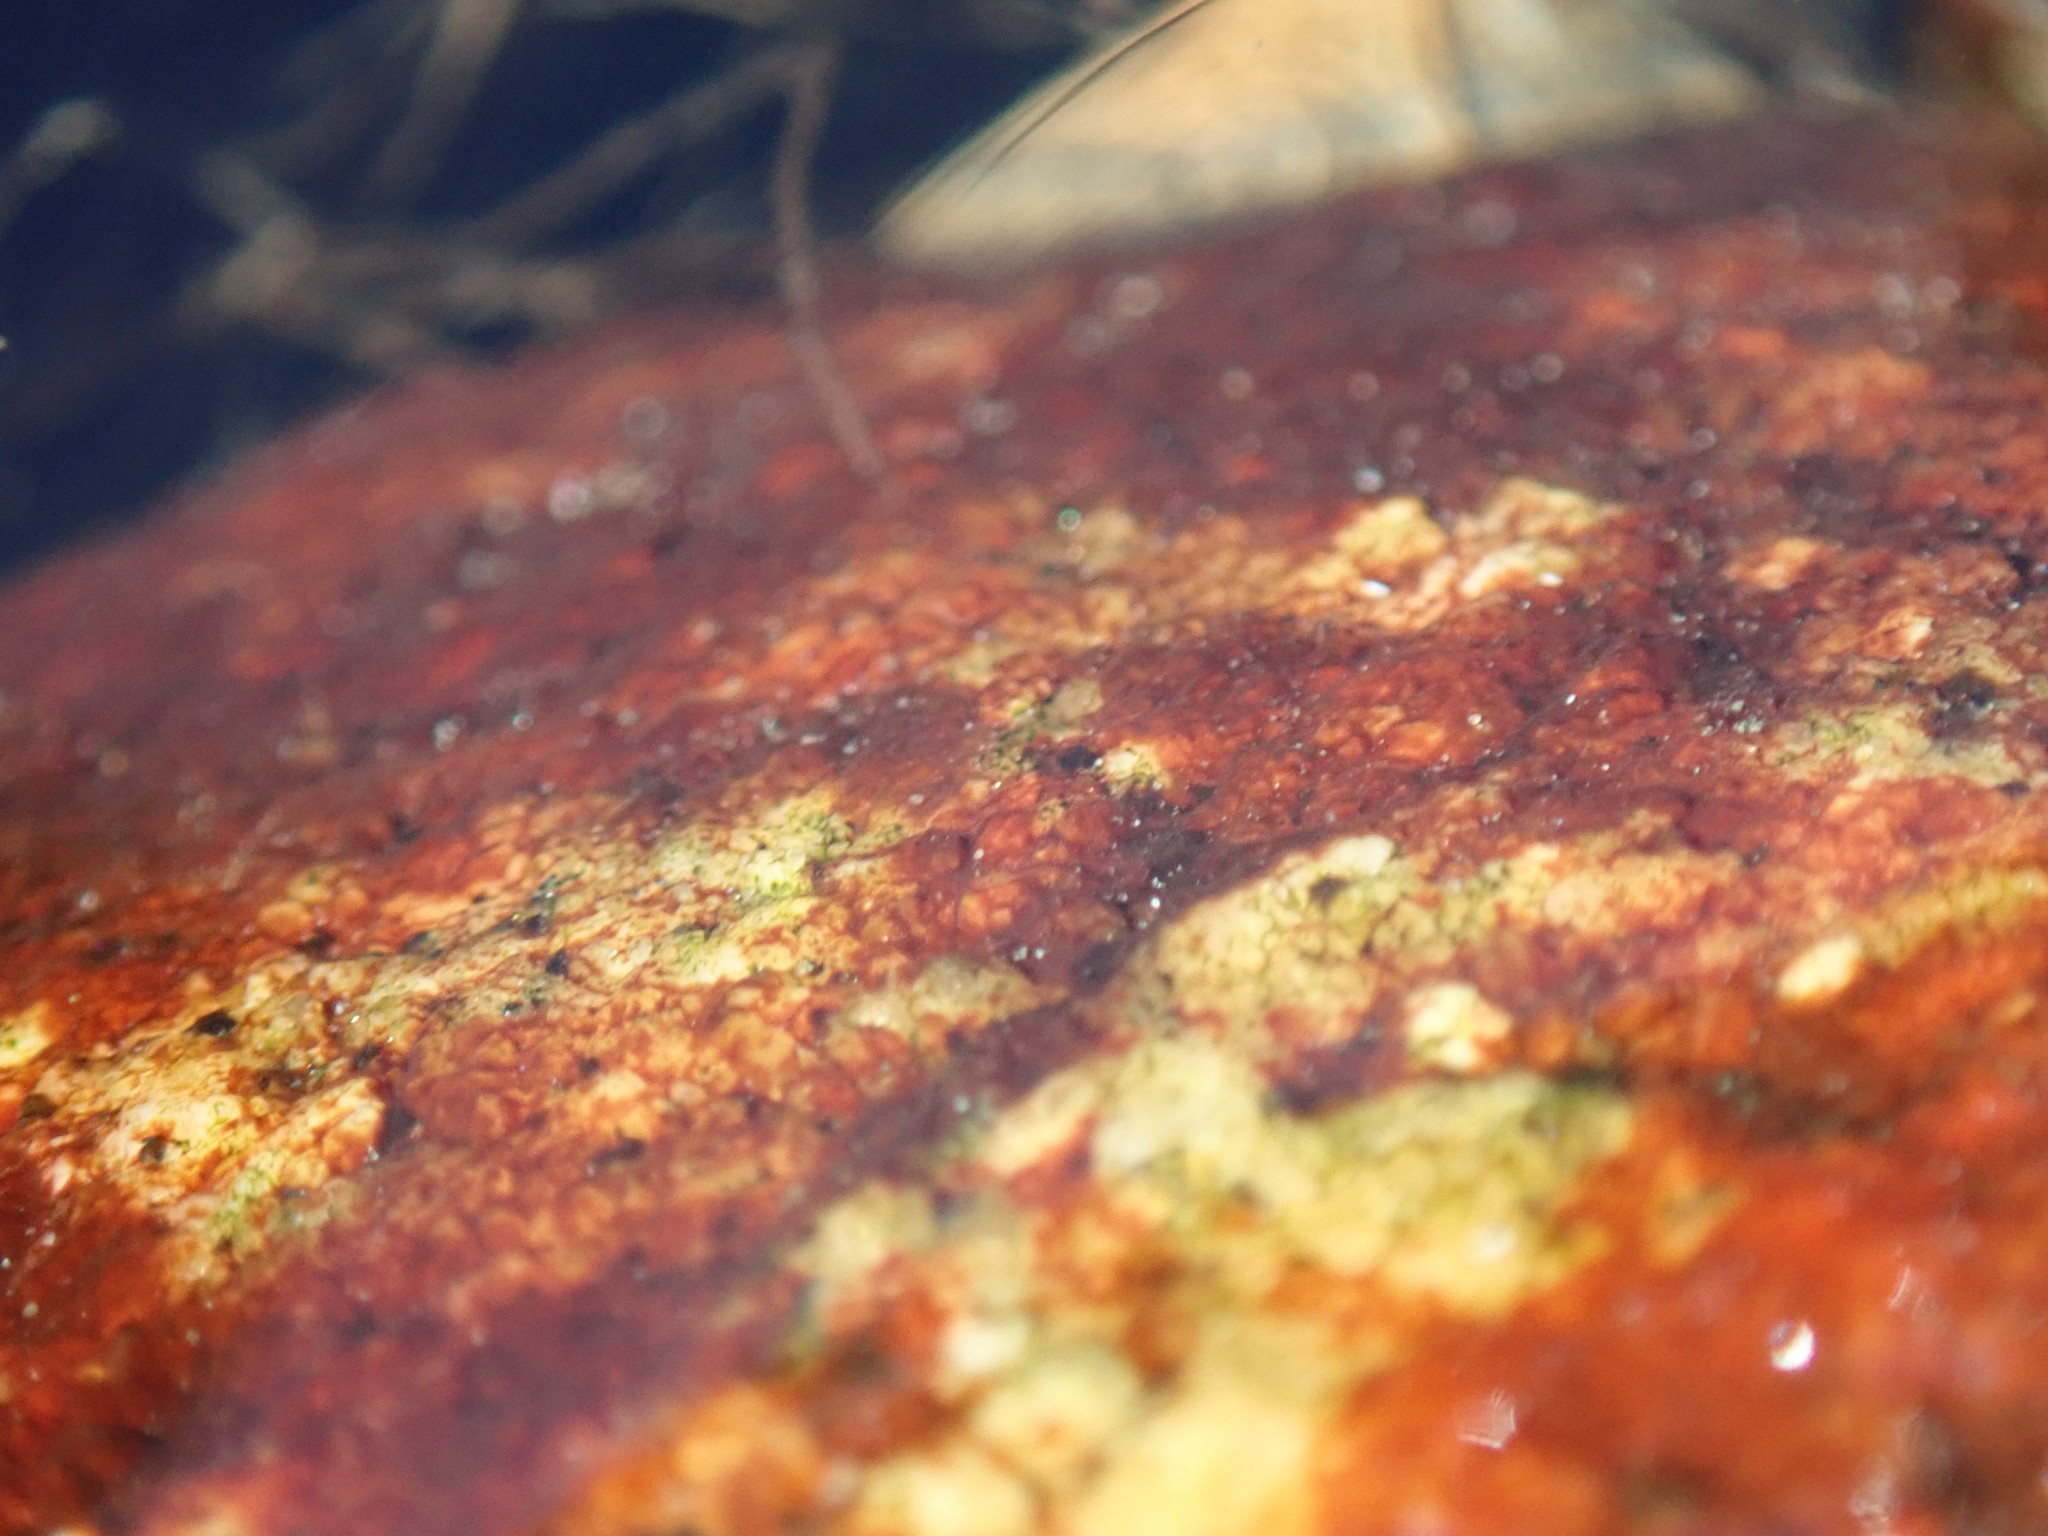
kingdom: Plantae
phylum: Rhodophyta
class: Florideophyceae
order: Hildenbrandiales
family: Hildenbrandiaceae
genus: Hildenbrandia
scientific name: Hildenbrandia rubra
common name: Rusty rock
